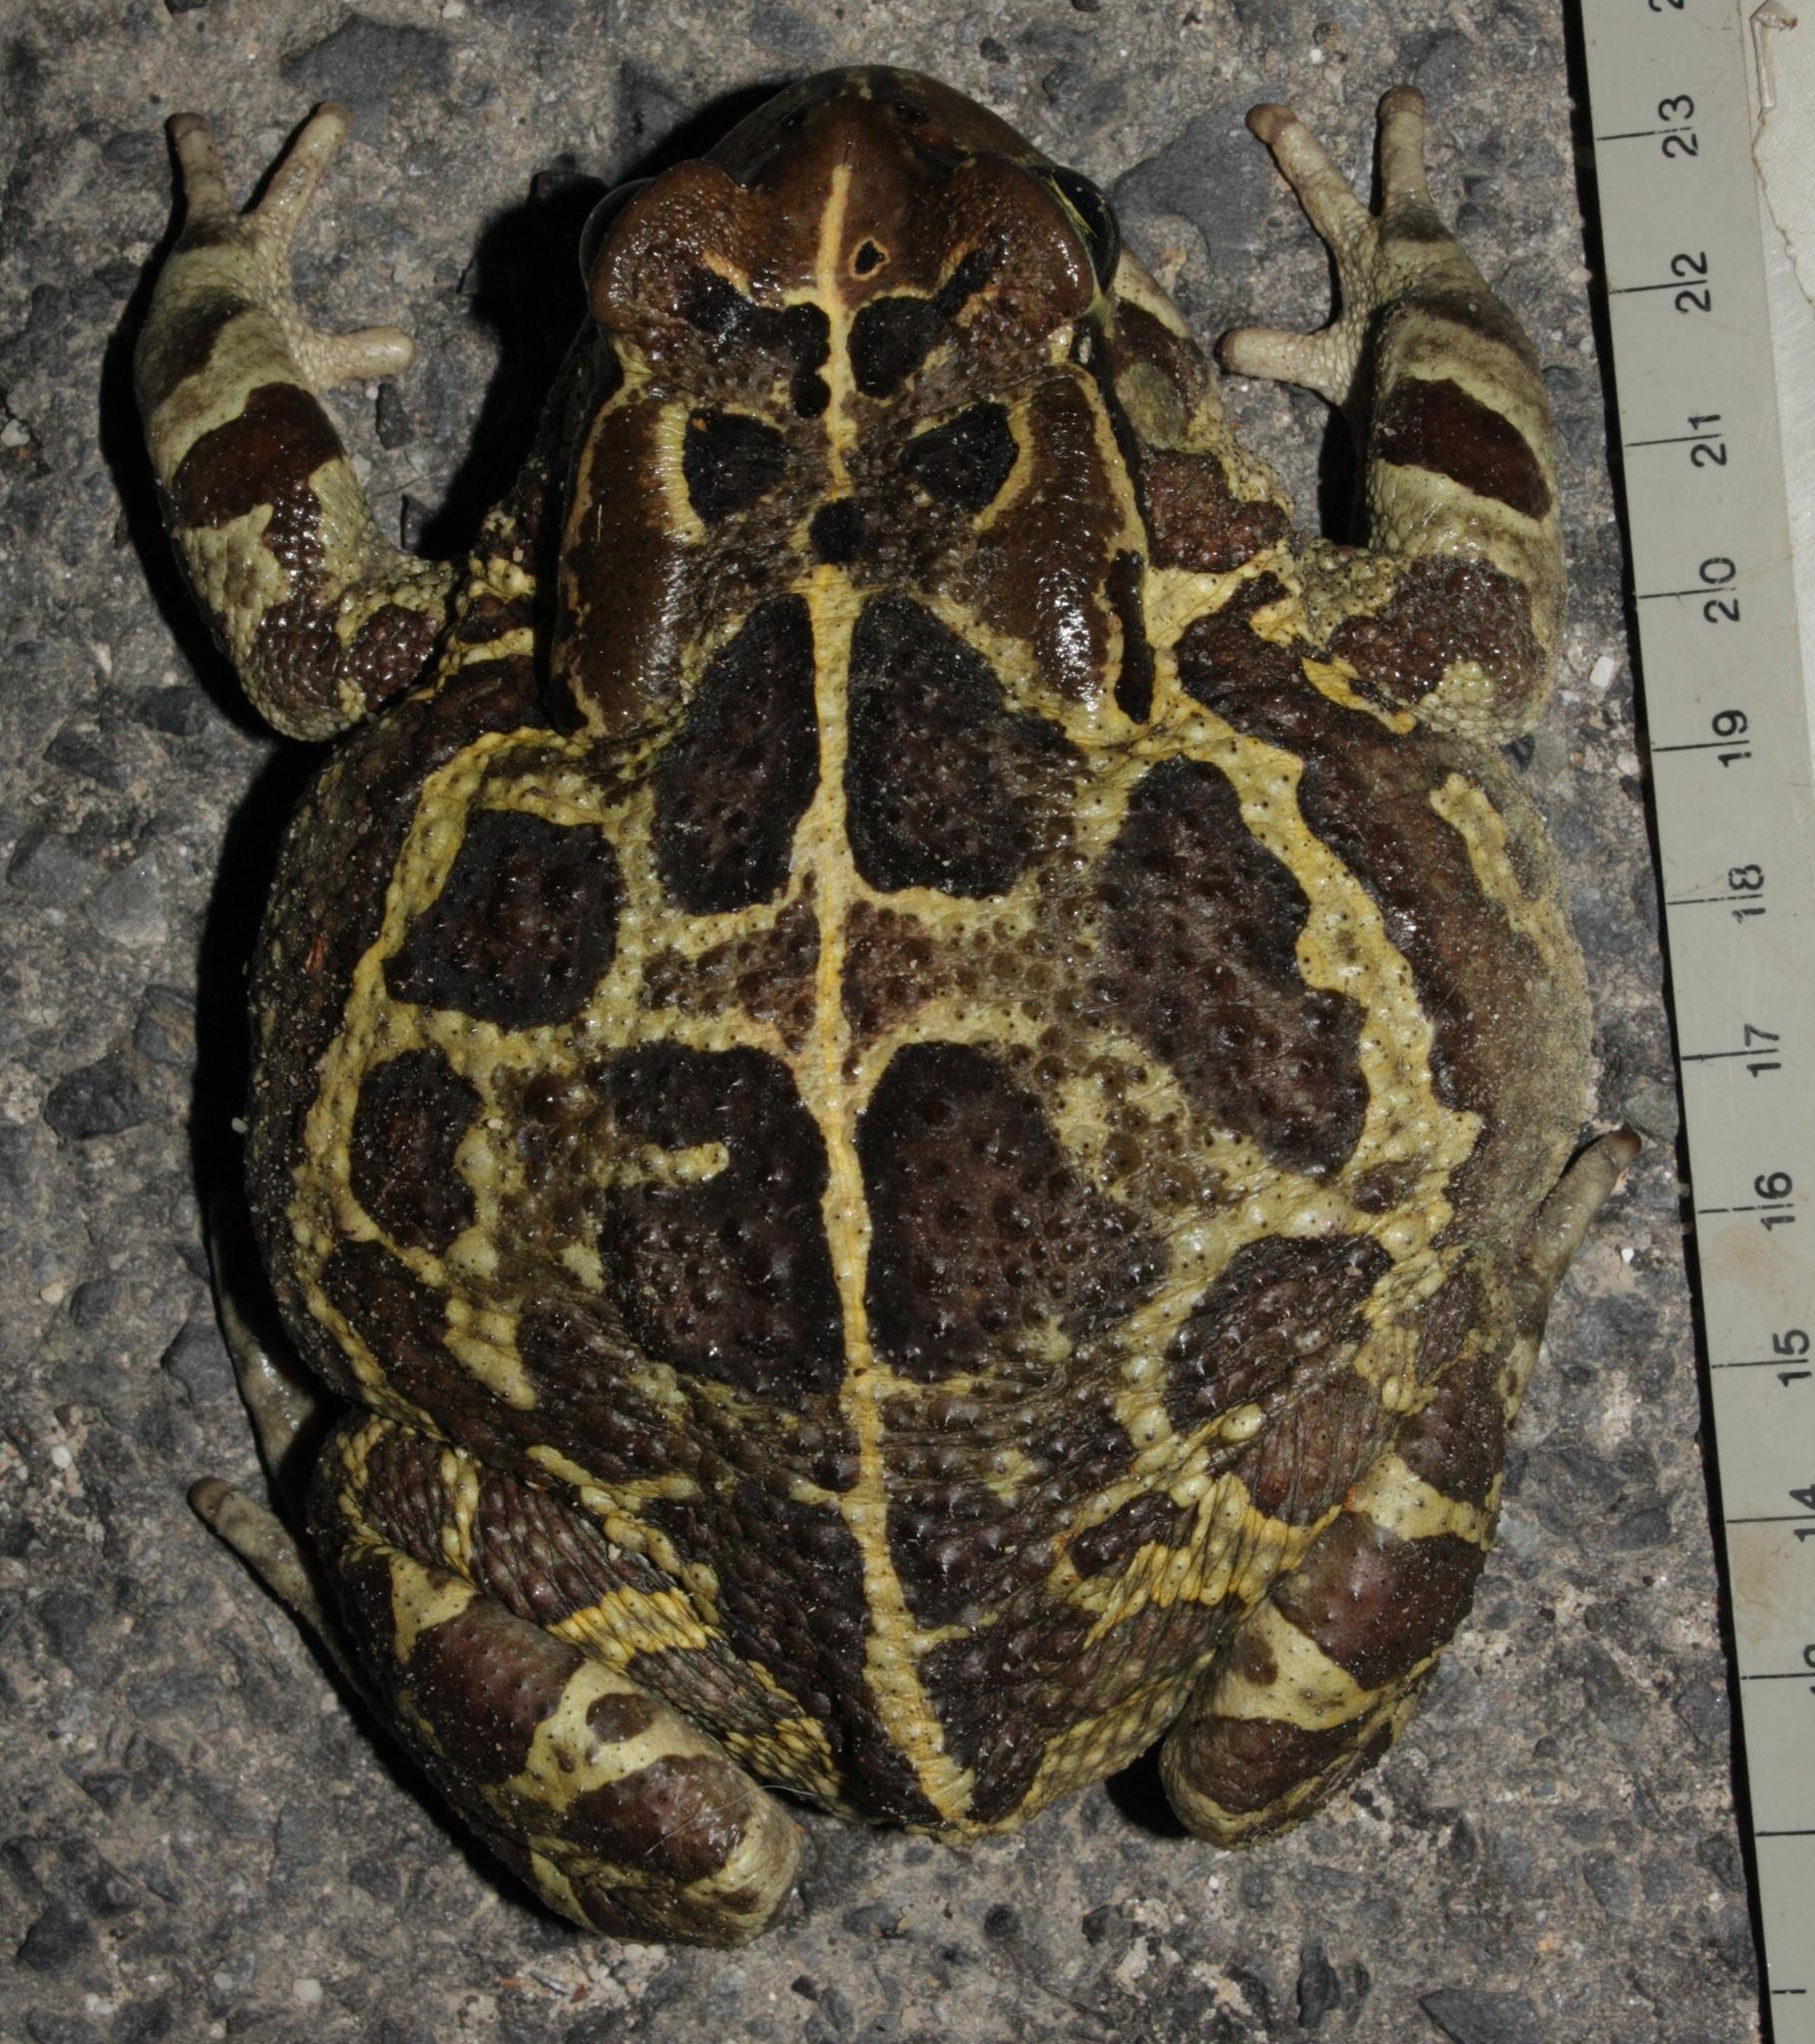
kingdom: Animalia
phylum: Chordata
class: Amphibia
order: Anura
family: Bufonidae
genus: Sclerophrys
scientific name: Sclerophrys pantherina
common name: Panther toad
